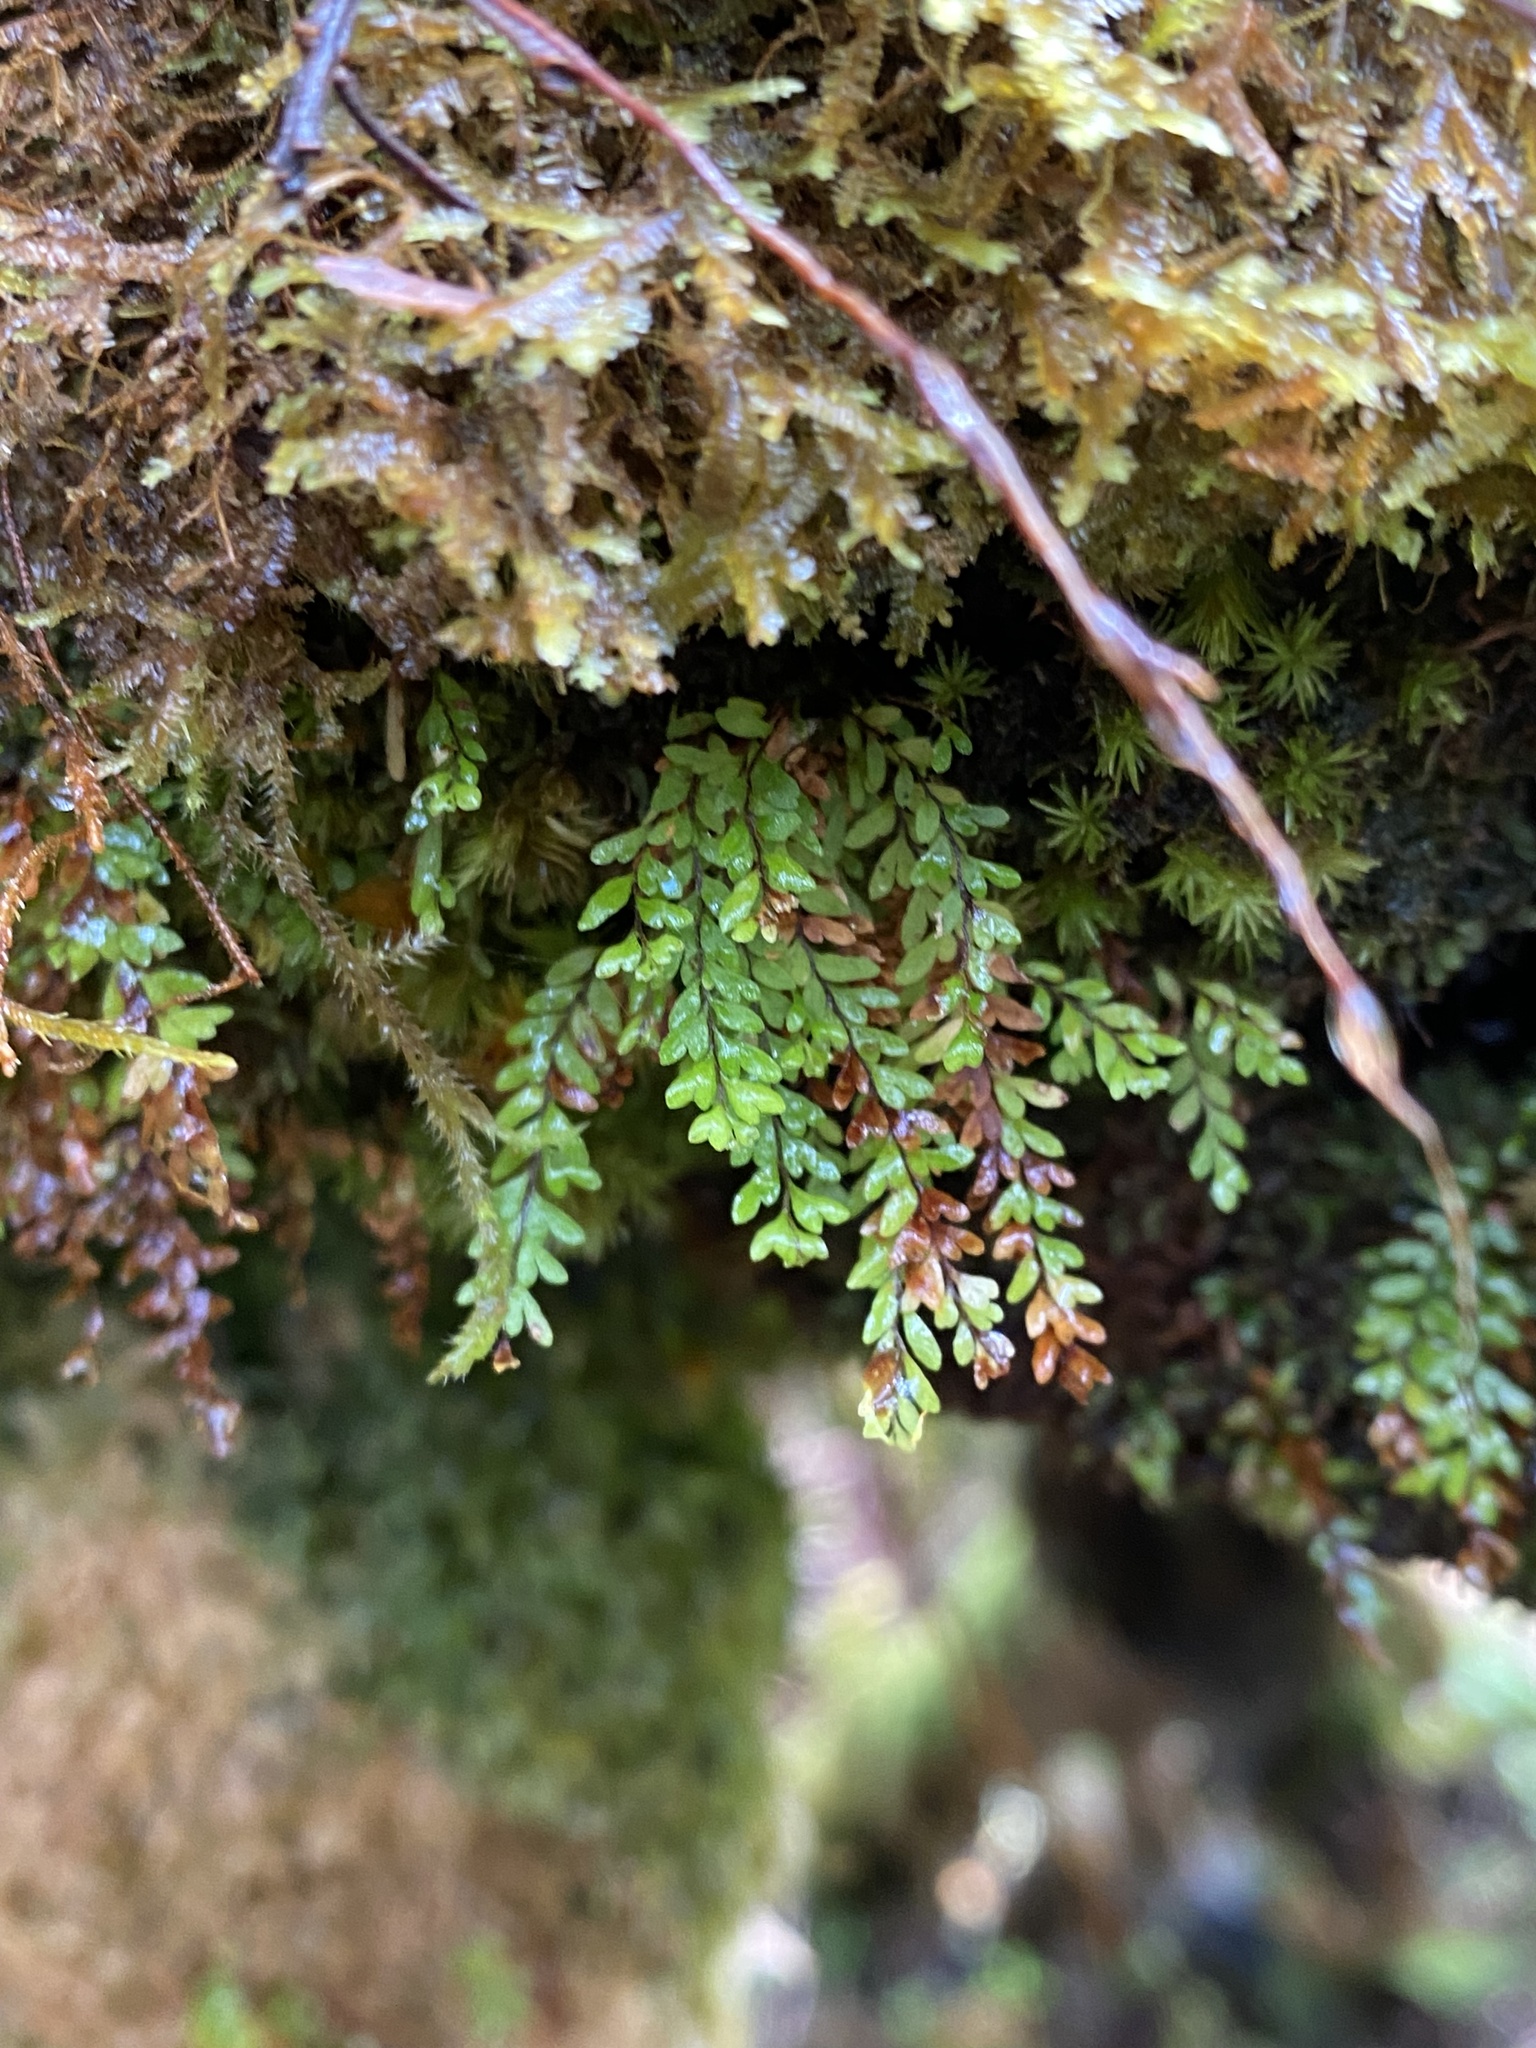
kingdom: Plantae
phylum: Tracheophyta
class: Polypodiopsida
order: Polypodiales
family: Polypodiaceae
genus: Adenophorus
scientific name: Adenophorus hymenophylloides
